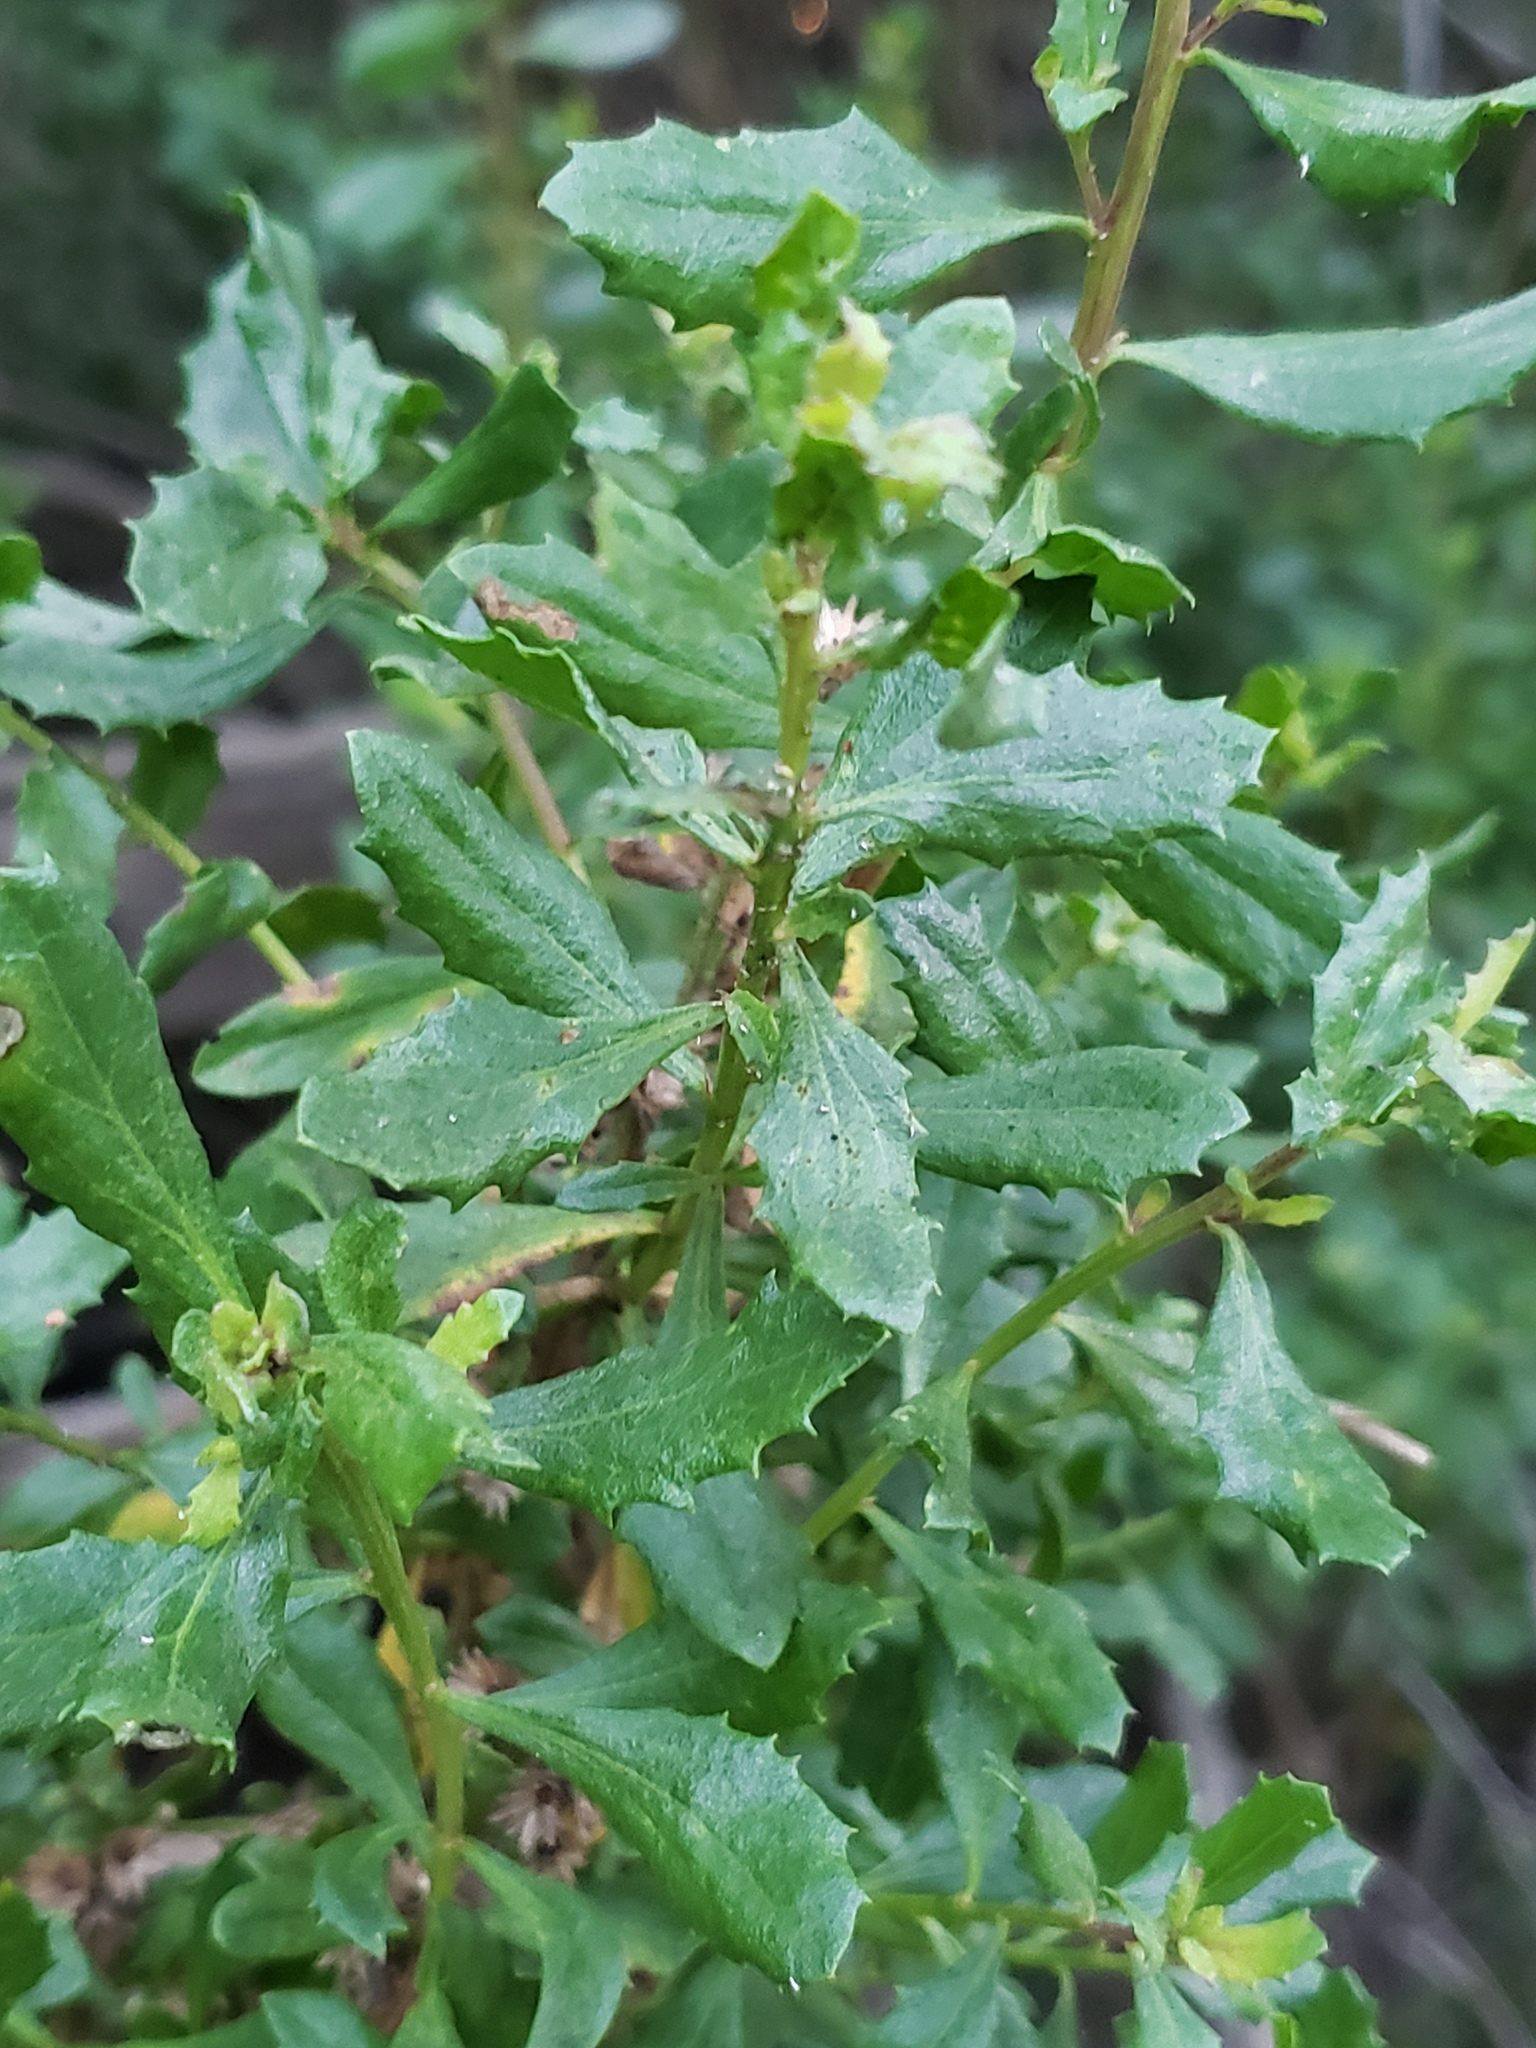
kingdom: Plantae
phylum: Tracheophyta
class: Magnoliopsida
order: Asterales
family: Asteraceae
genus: Baccharis
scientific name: Baccharis pilularis
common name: Coyotebrush
